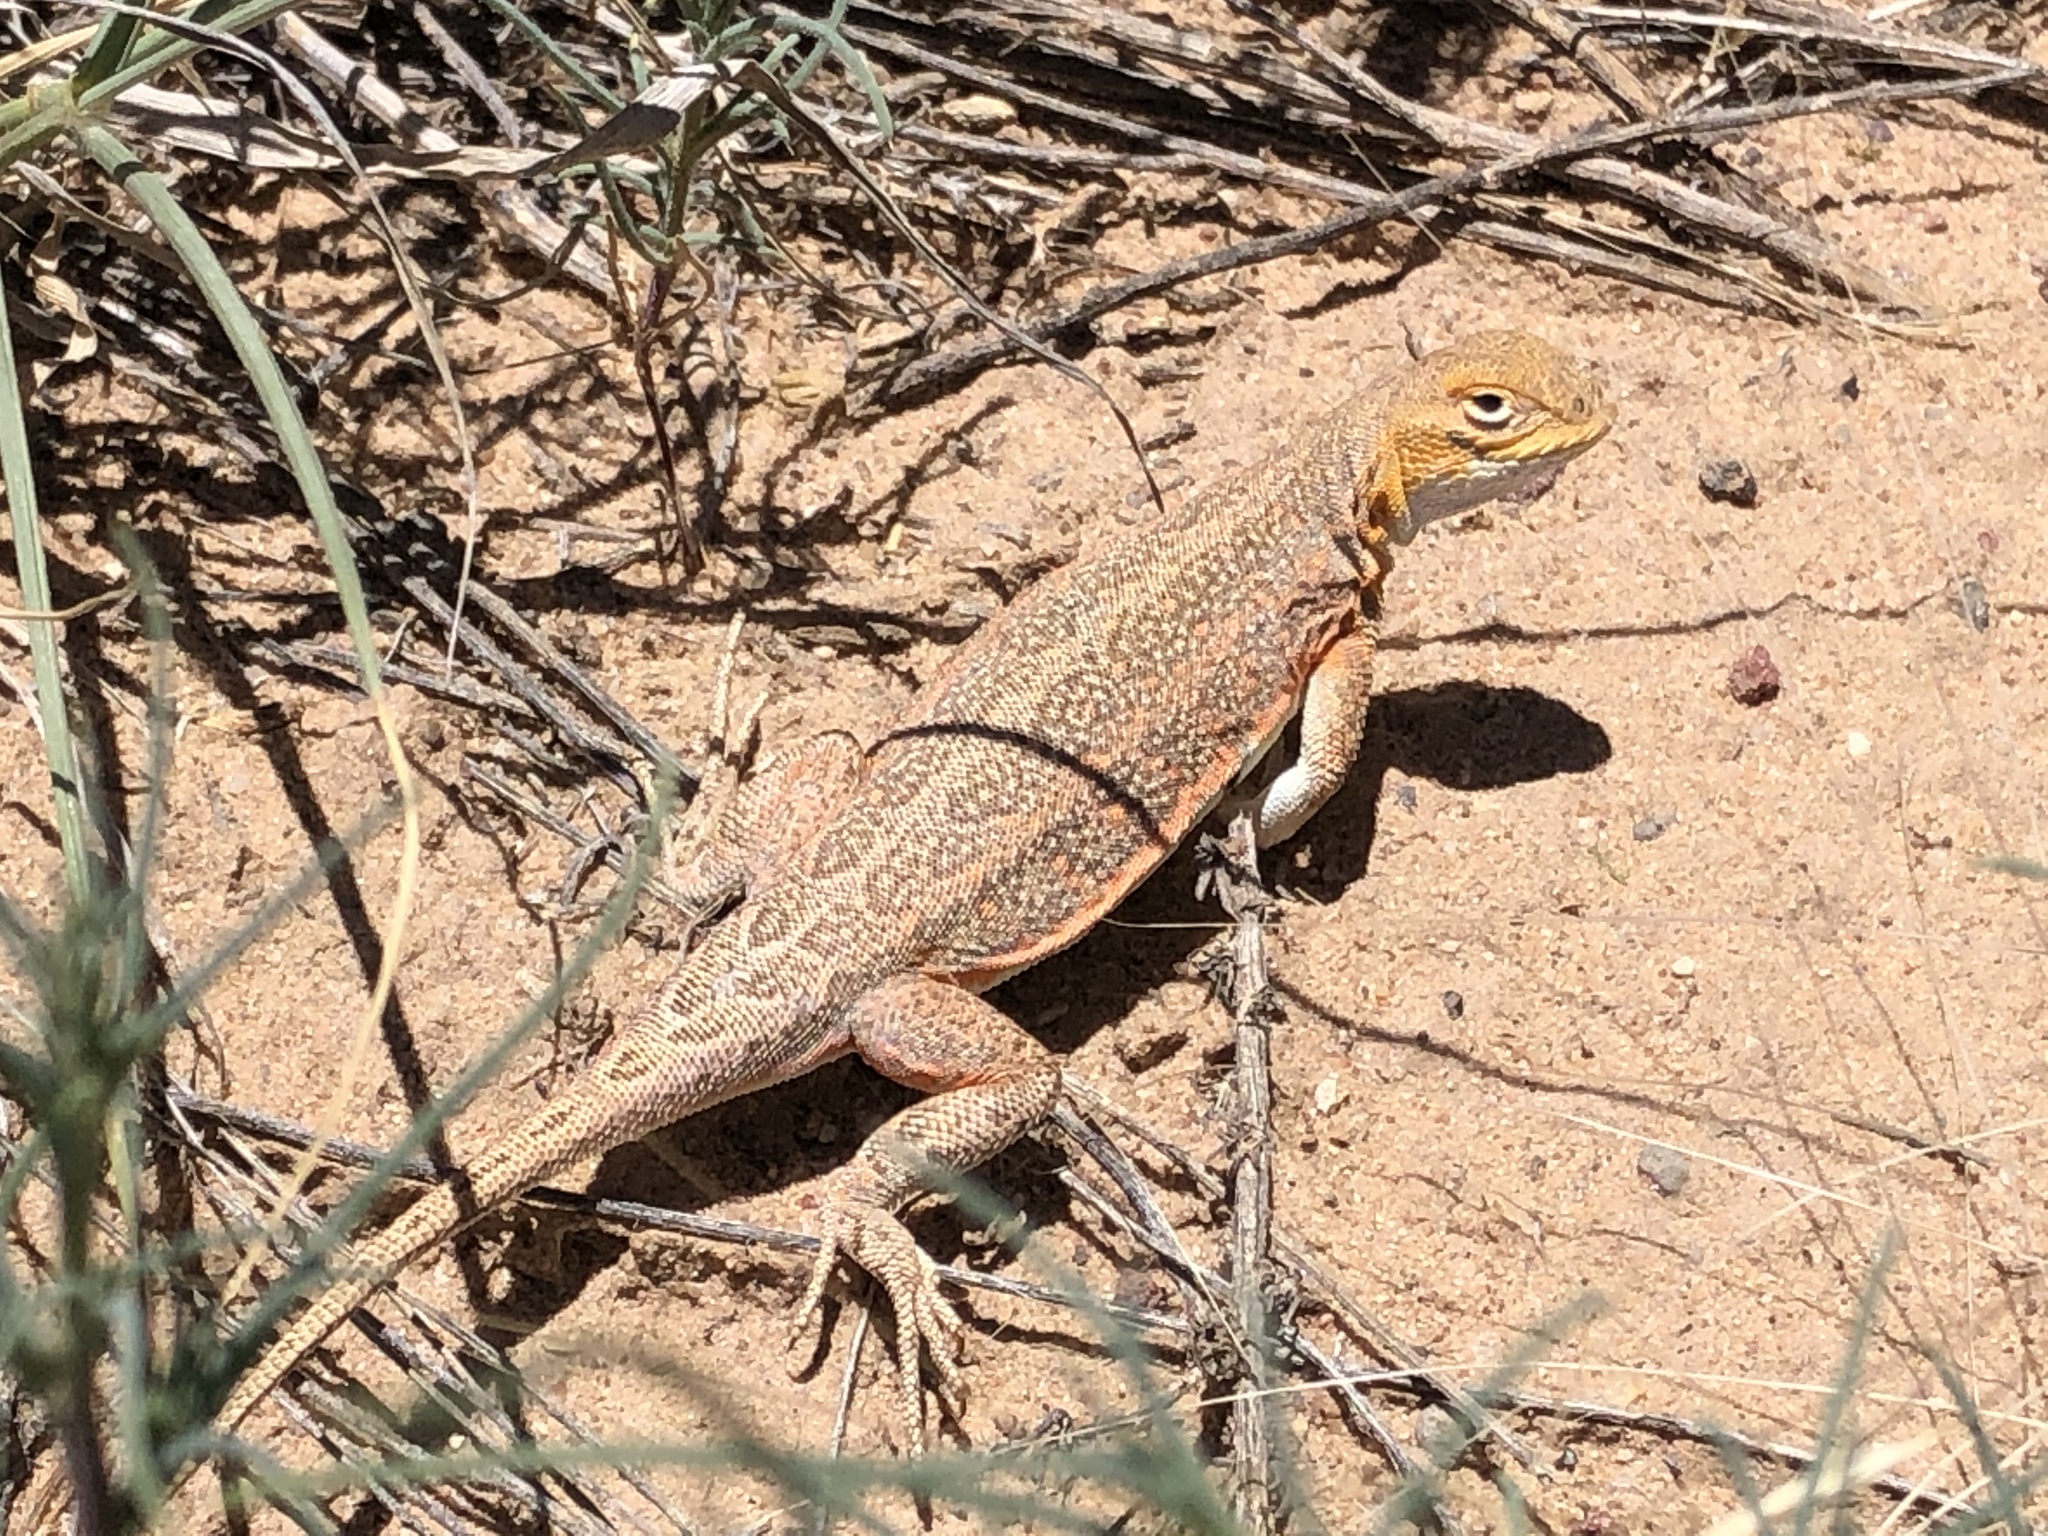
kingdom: Animalia
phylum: Chordata
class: Squamata
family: Phrynosomatidae
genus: Holbrookia
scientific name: Holbrookia maculata
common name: Lesser earless lizard
